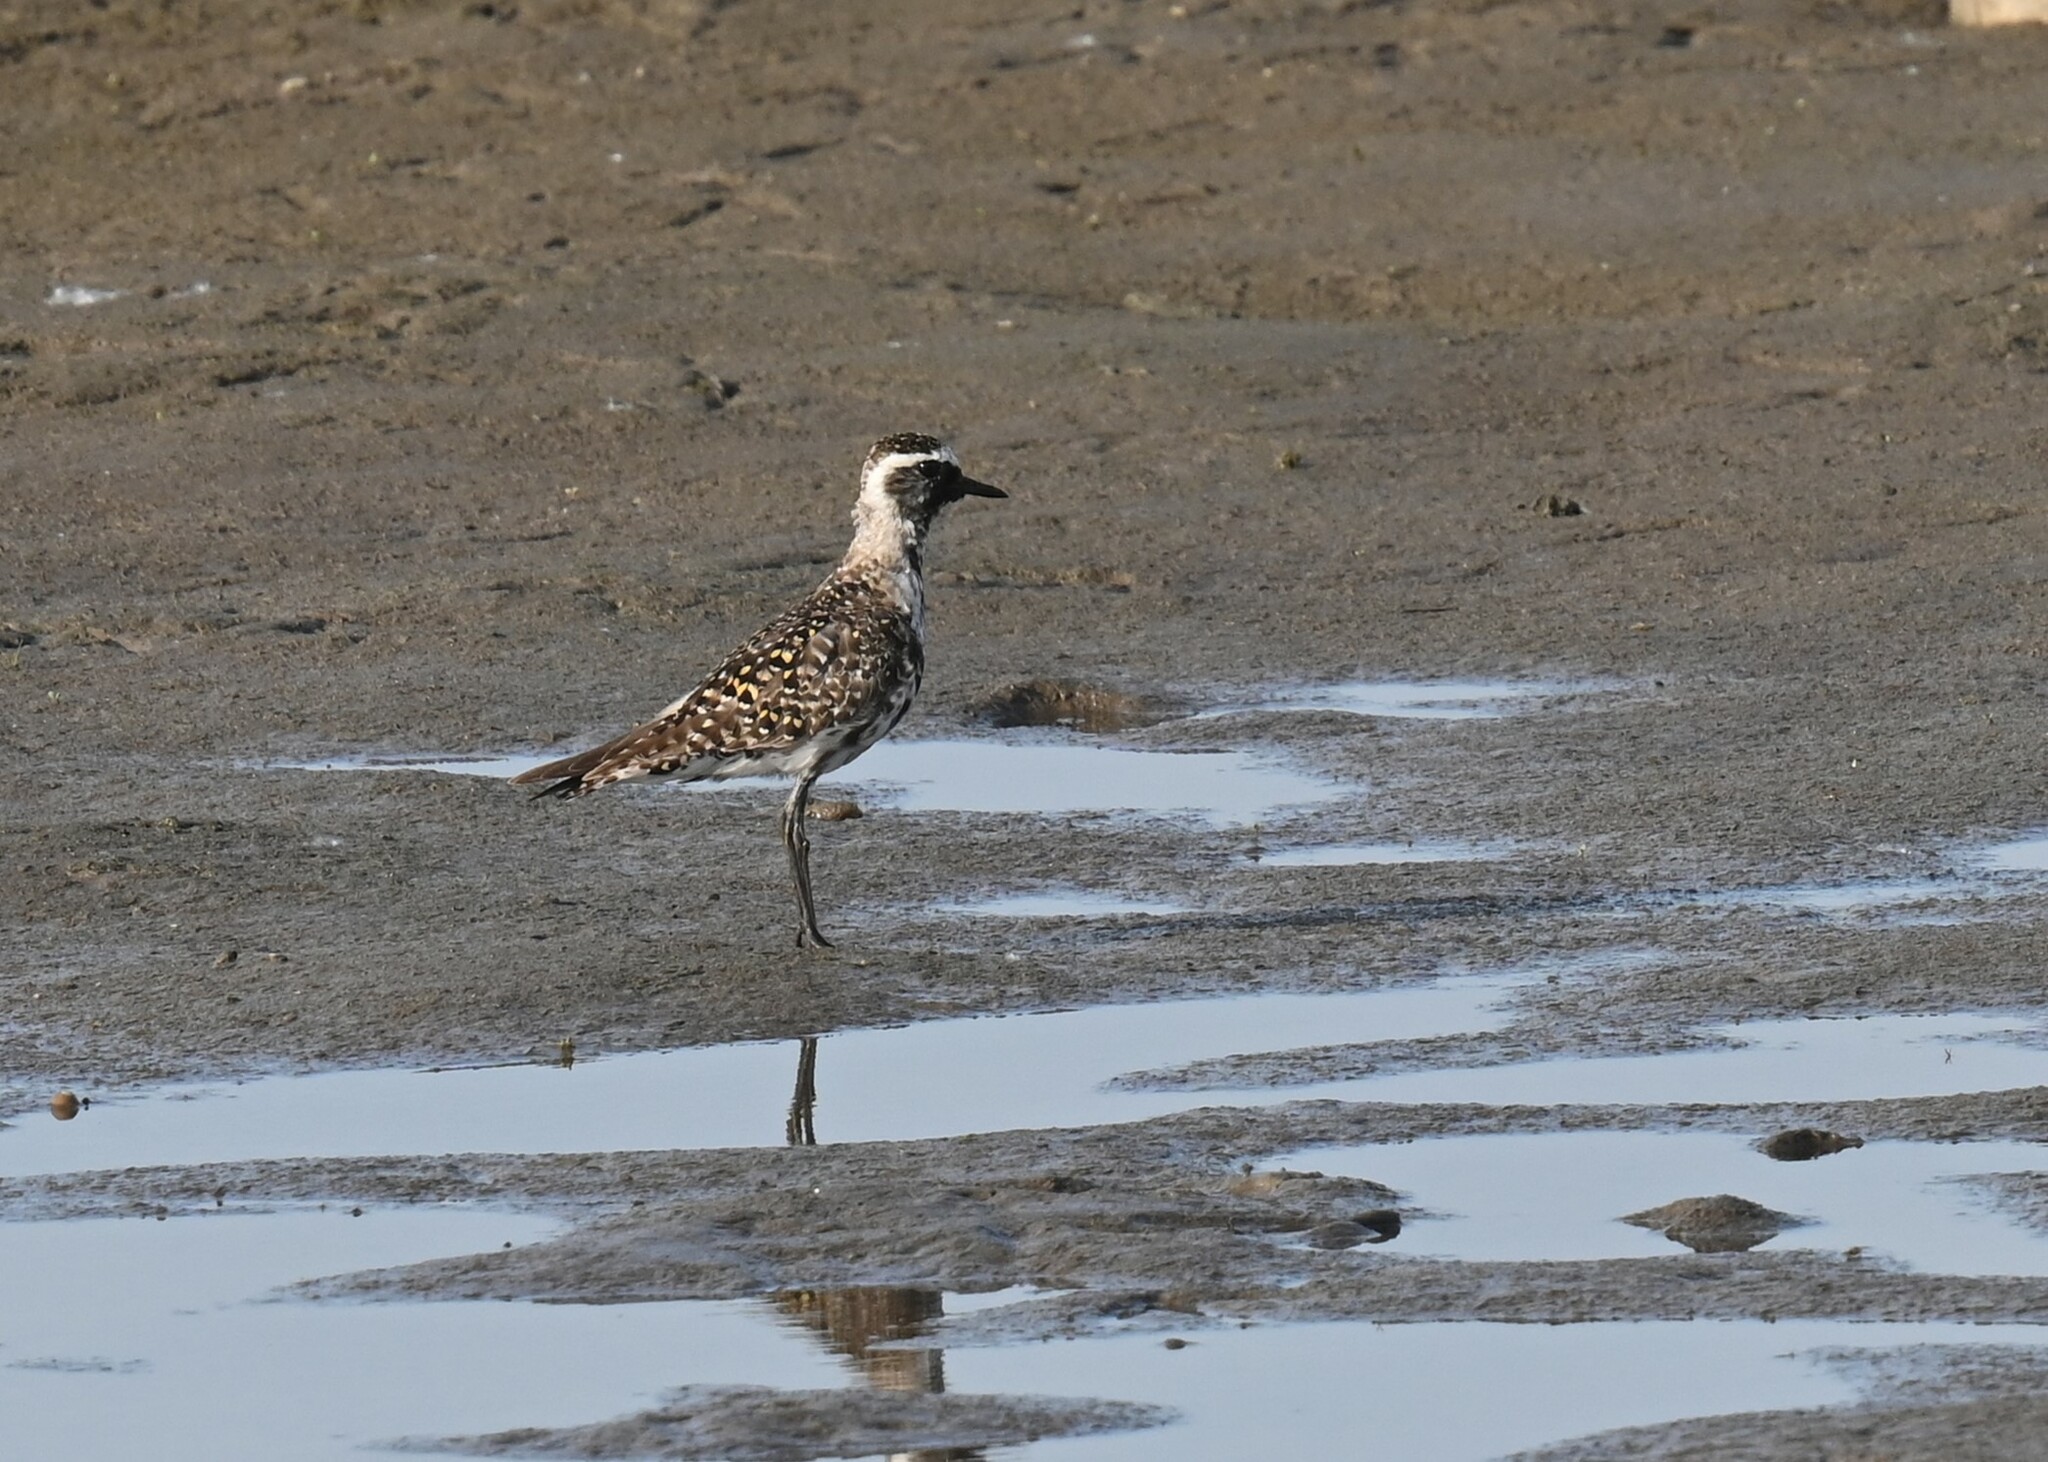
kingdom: Animalia
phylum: Chordata
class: Aves
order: Charadriiformes
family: Charadriidae
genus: Pluvialis
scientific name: Pluvialis dominica
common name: American golden plover
